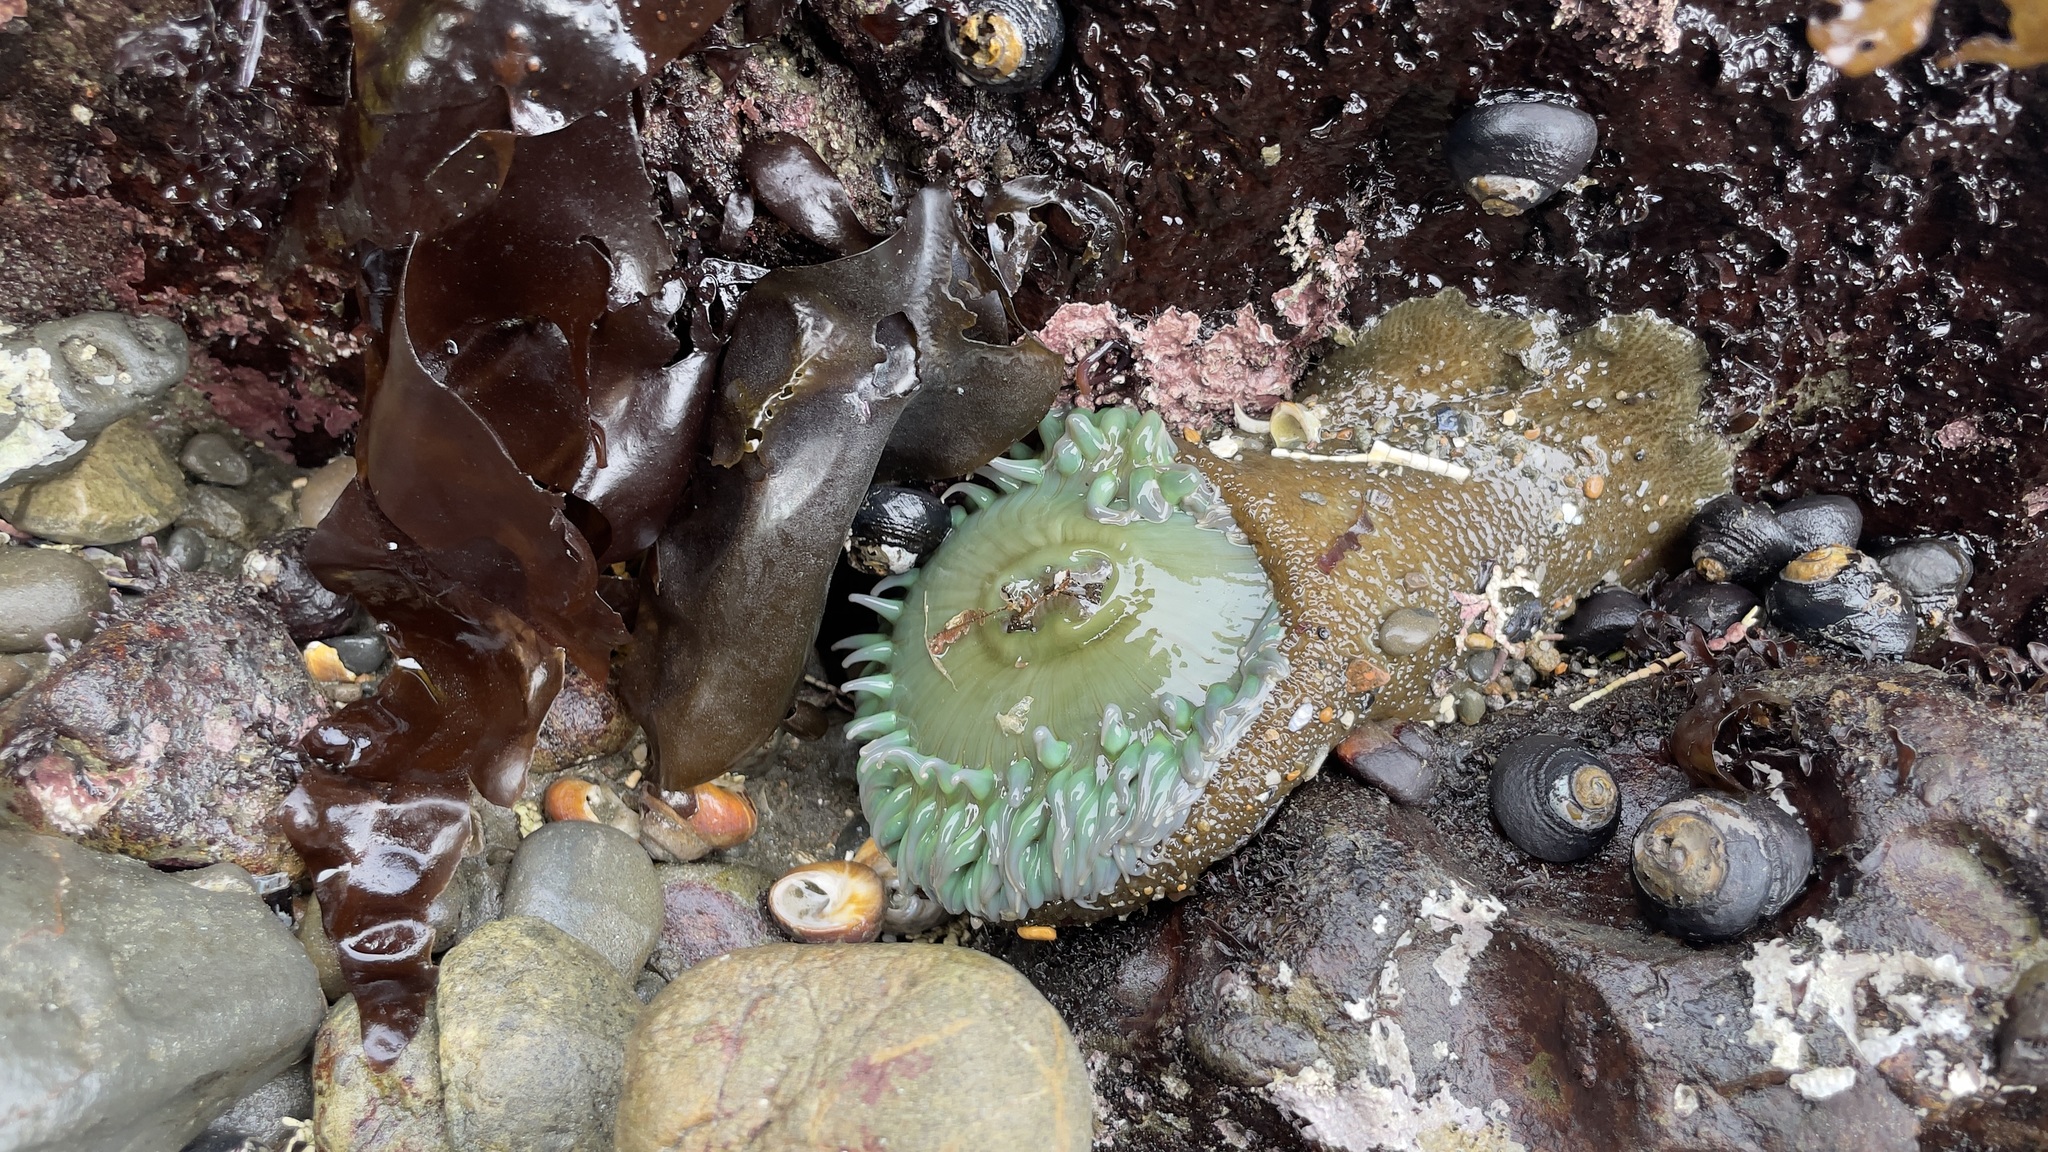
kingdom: Animalia
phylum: Cnidaria
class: Anthozoa
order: Actiniaria
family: Actiniidae
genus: Anthopleura
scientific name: Anthopleura xanthogrammica
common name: Giant green anemone
